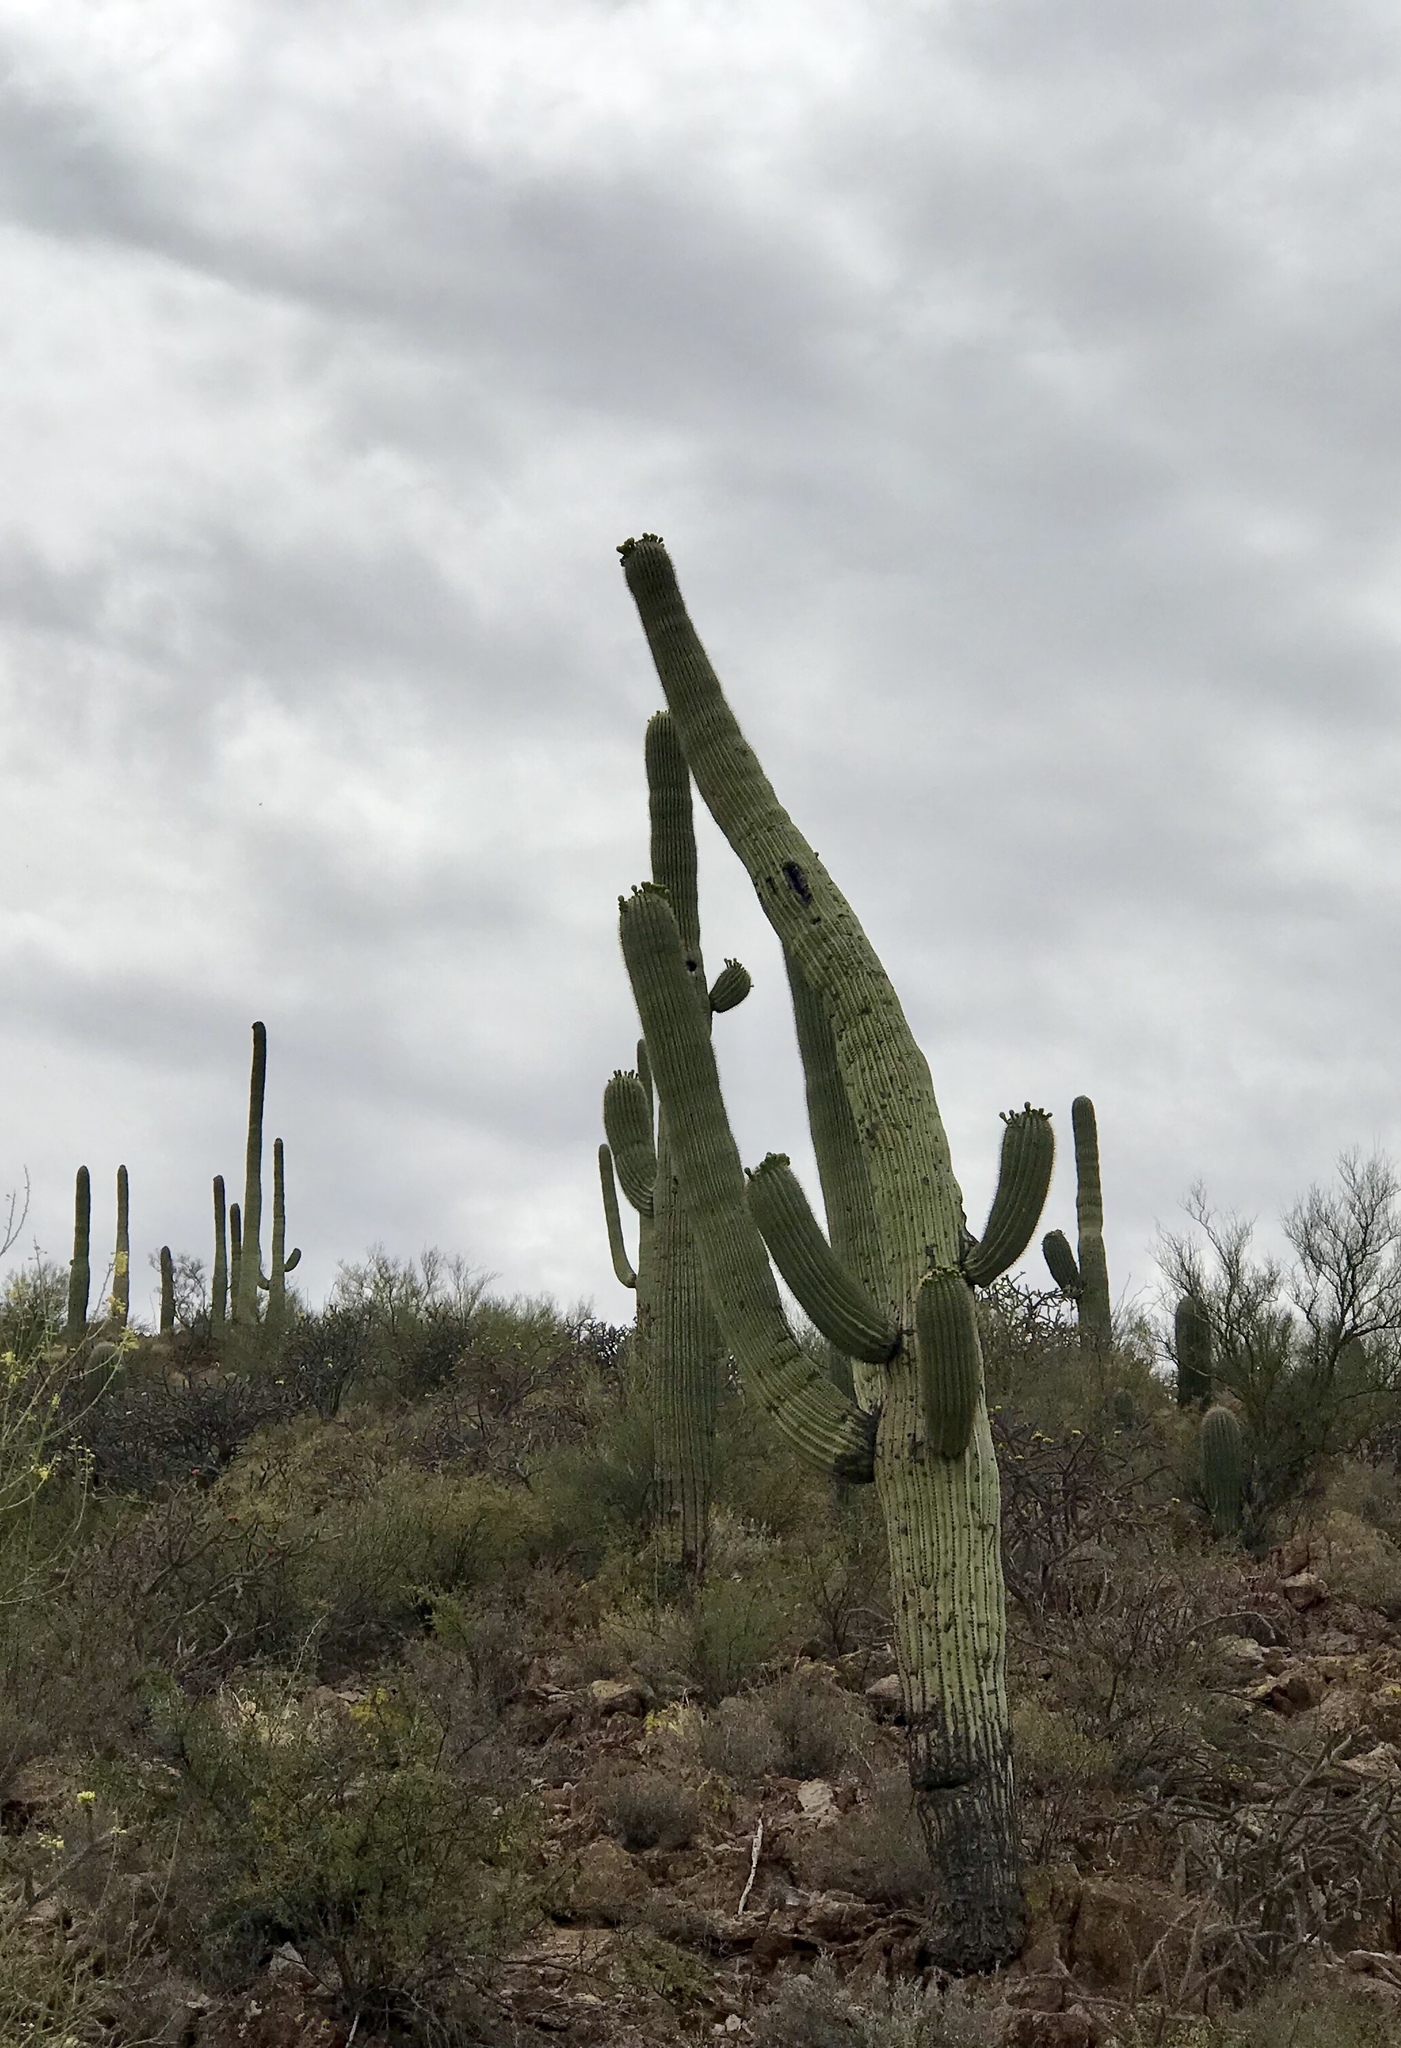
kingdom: Plantae
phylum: Tracheophyta
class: Magnoliopsida
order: Caryophyllales
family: Cactaceae
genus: Carnegiea
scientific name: Carnegiea gigantea
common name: Saguaro
